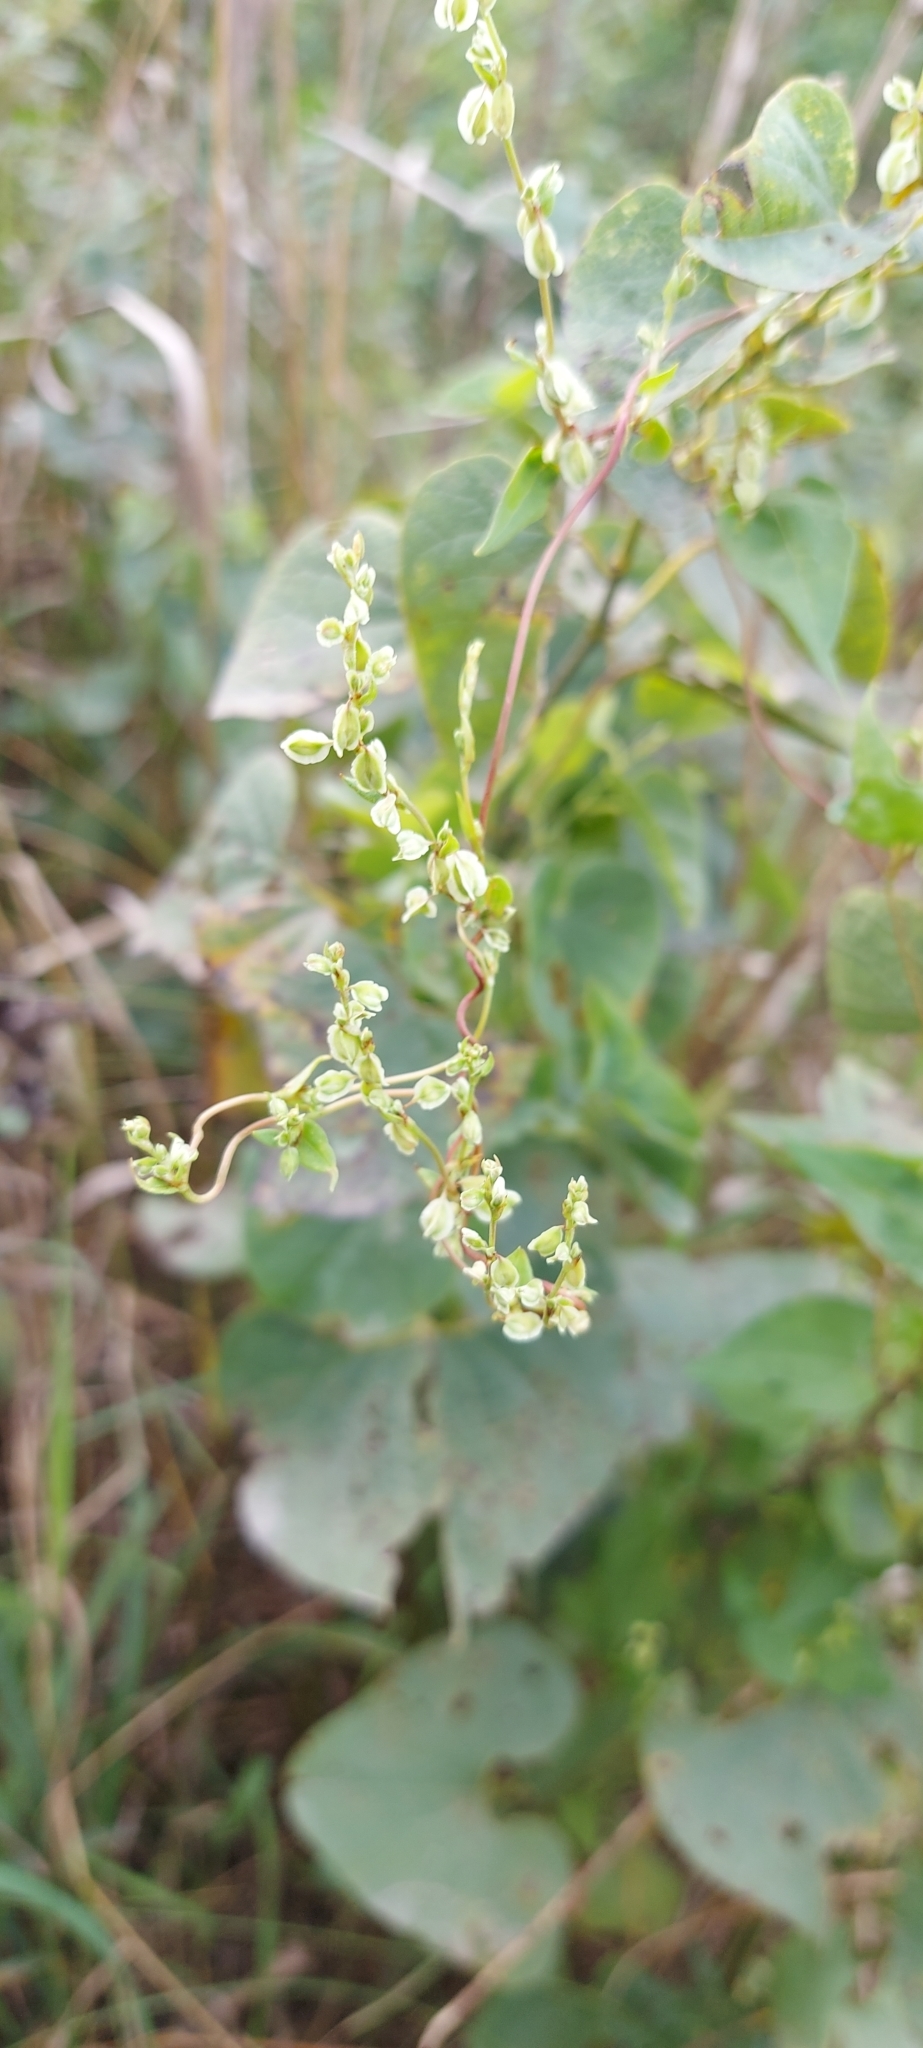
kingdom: Plantae
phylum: Tracheophyta
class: Magnoliopsida
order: Piperales
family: Aristolochiaceae
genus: Aristolochia
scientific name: Aristolochia clematitis
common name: Birthwort
